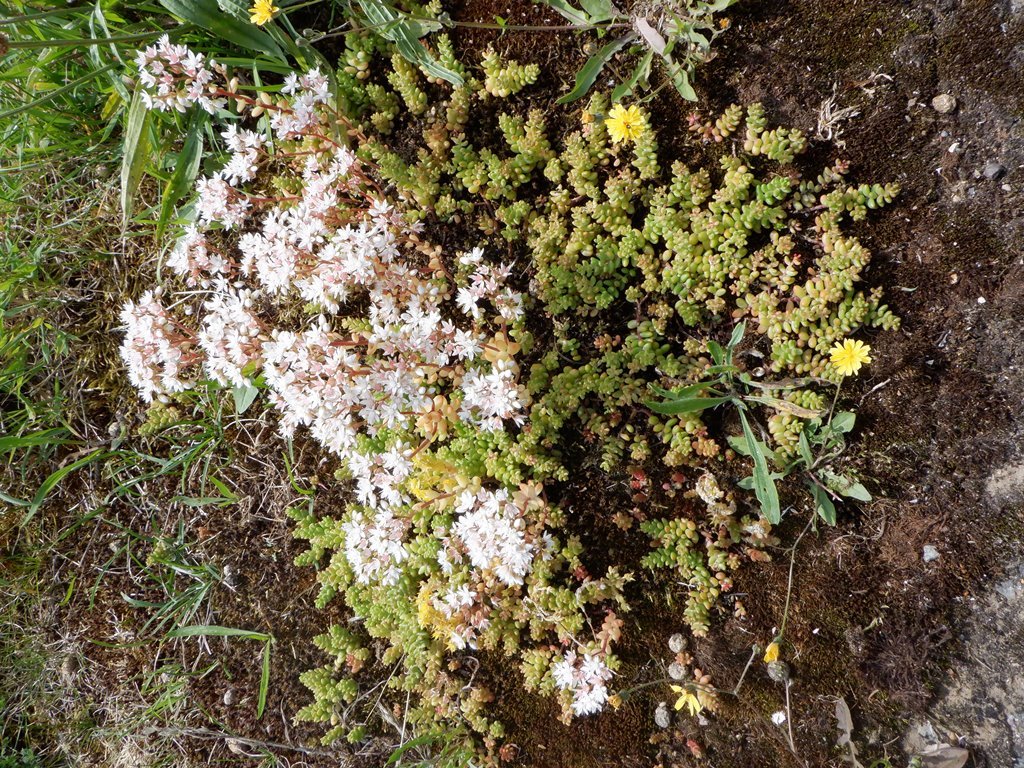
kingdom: Plantae
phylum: Tracheophyta
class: Magnoliopsida
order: Saxifragales
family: Crassulaceae
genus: Sedum
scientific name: Sedum album
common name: White stonecrop
